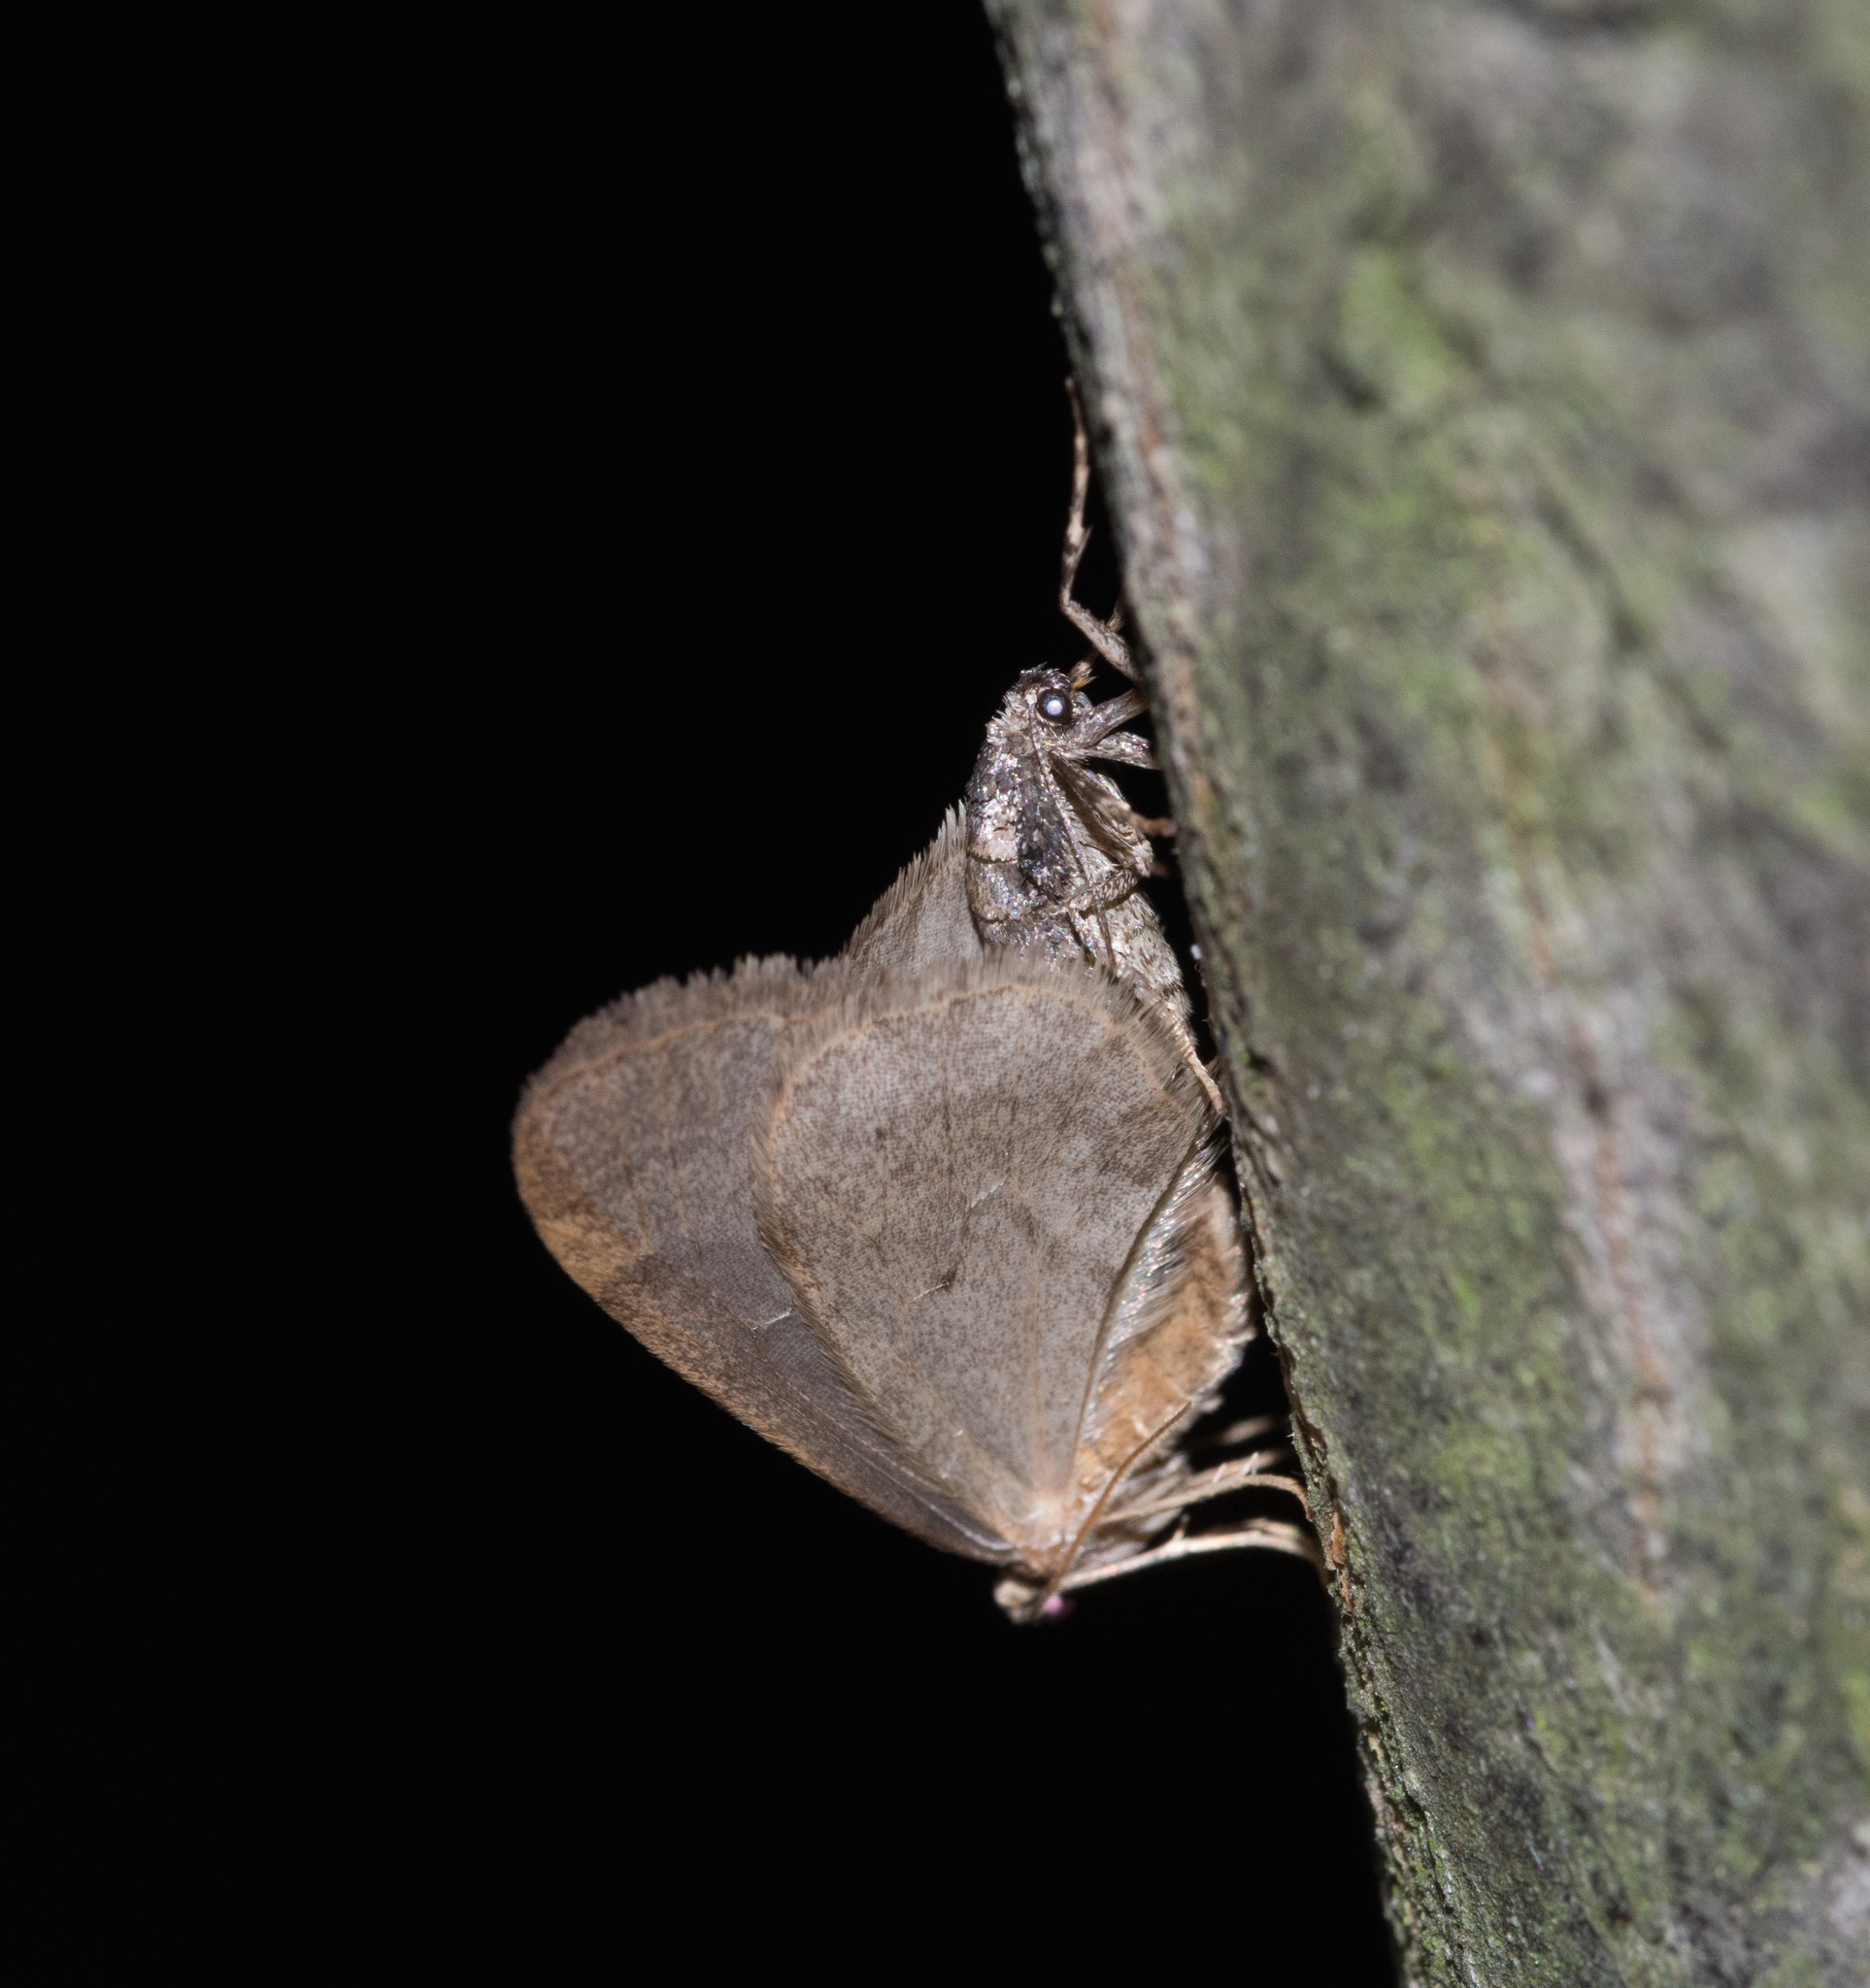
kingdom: Animalia
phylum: Arthropoda
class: Insecta
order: Lepidoptera
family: Geometridae
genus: Operophtera
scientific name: Operophtera brumata
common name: Winter moth
